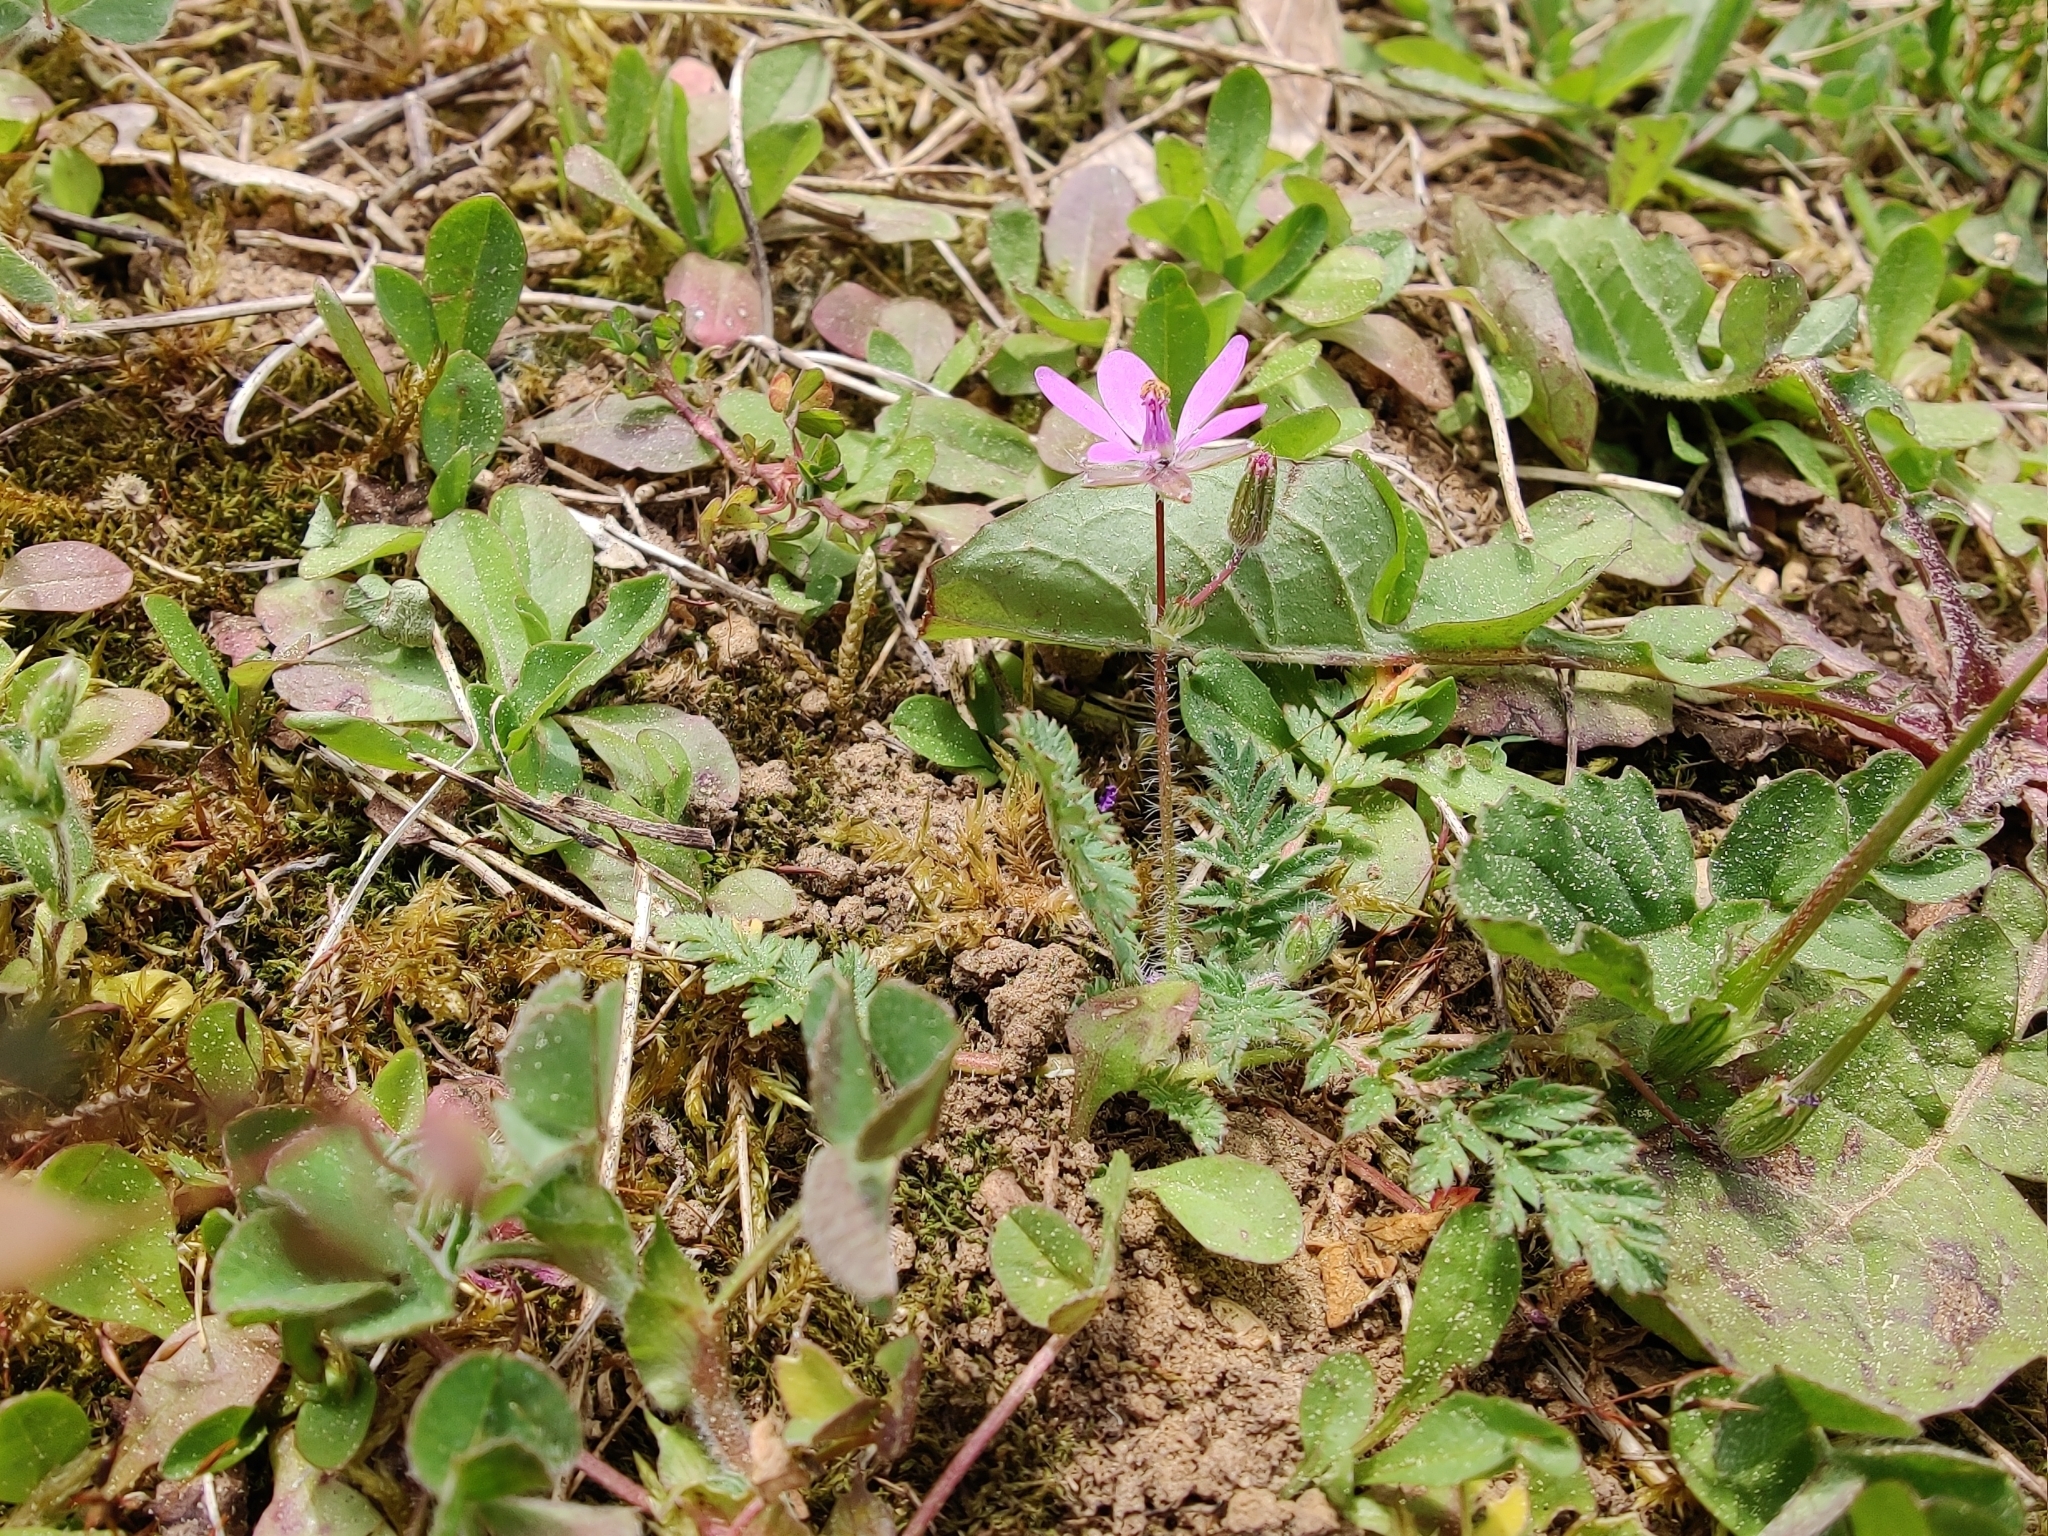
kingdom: Plantae
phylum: Tracheophyta
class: Magnoliopsida
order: Geraniales
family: Geraniaceae
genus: Erodium
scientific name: Erodium cicutarium
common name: Common stork's-bill
